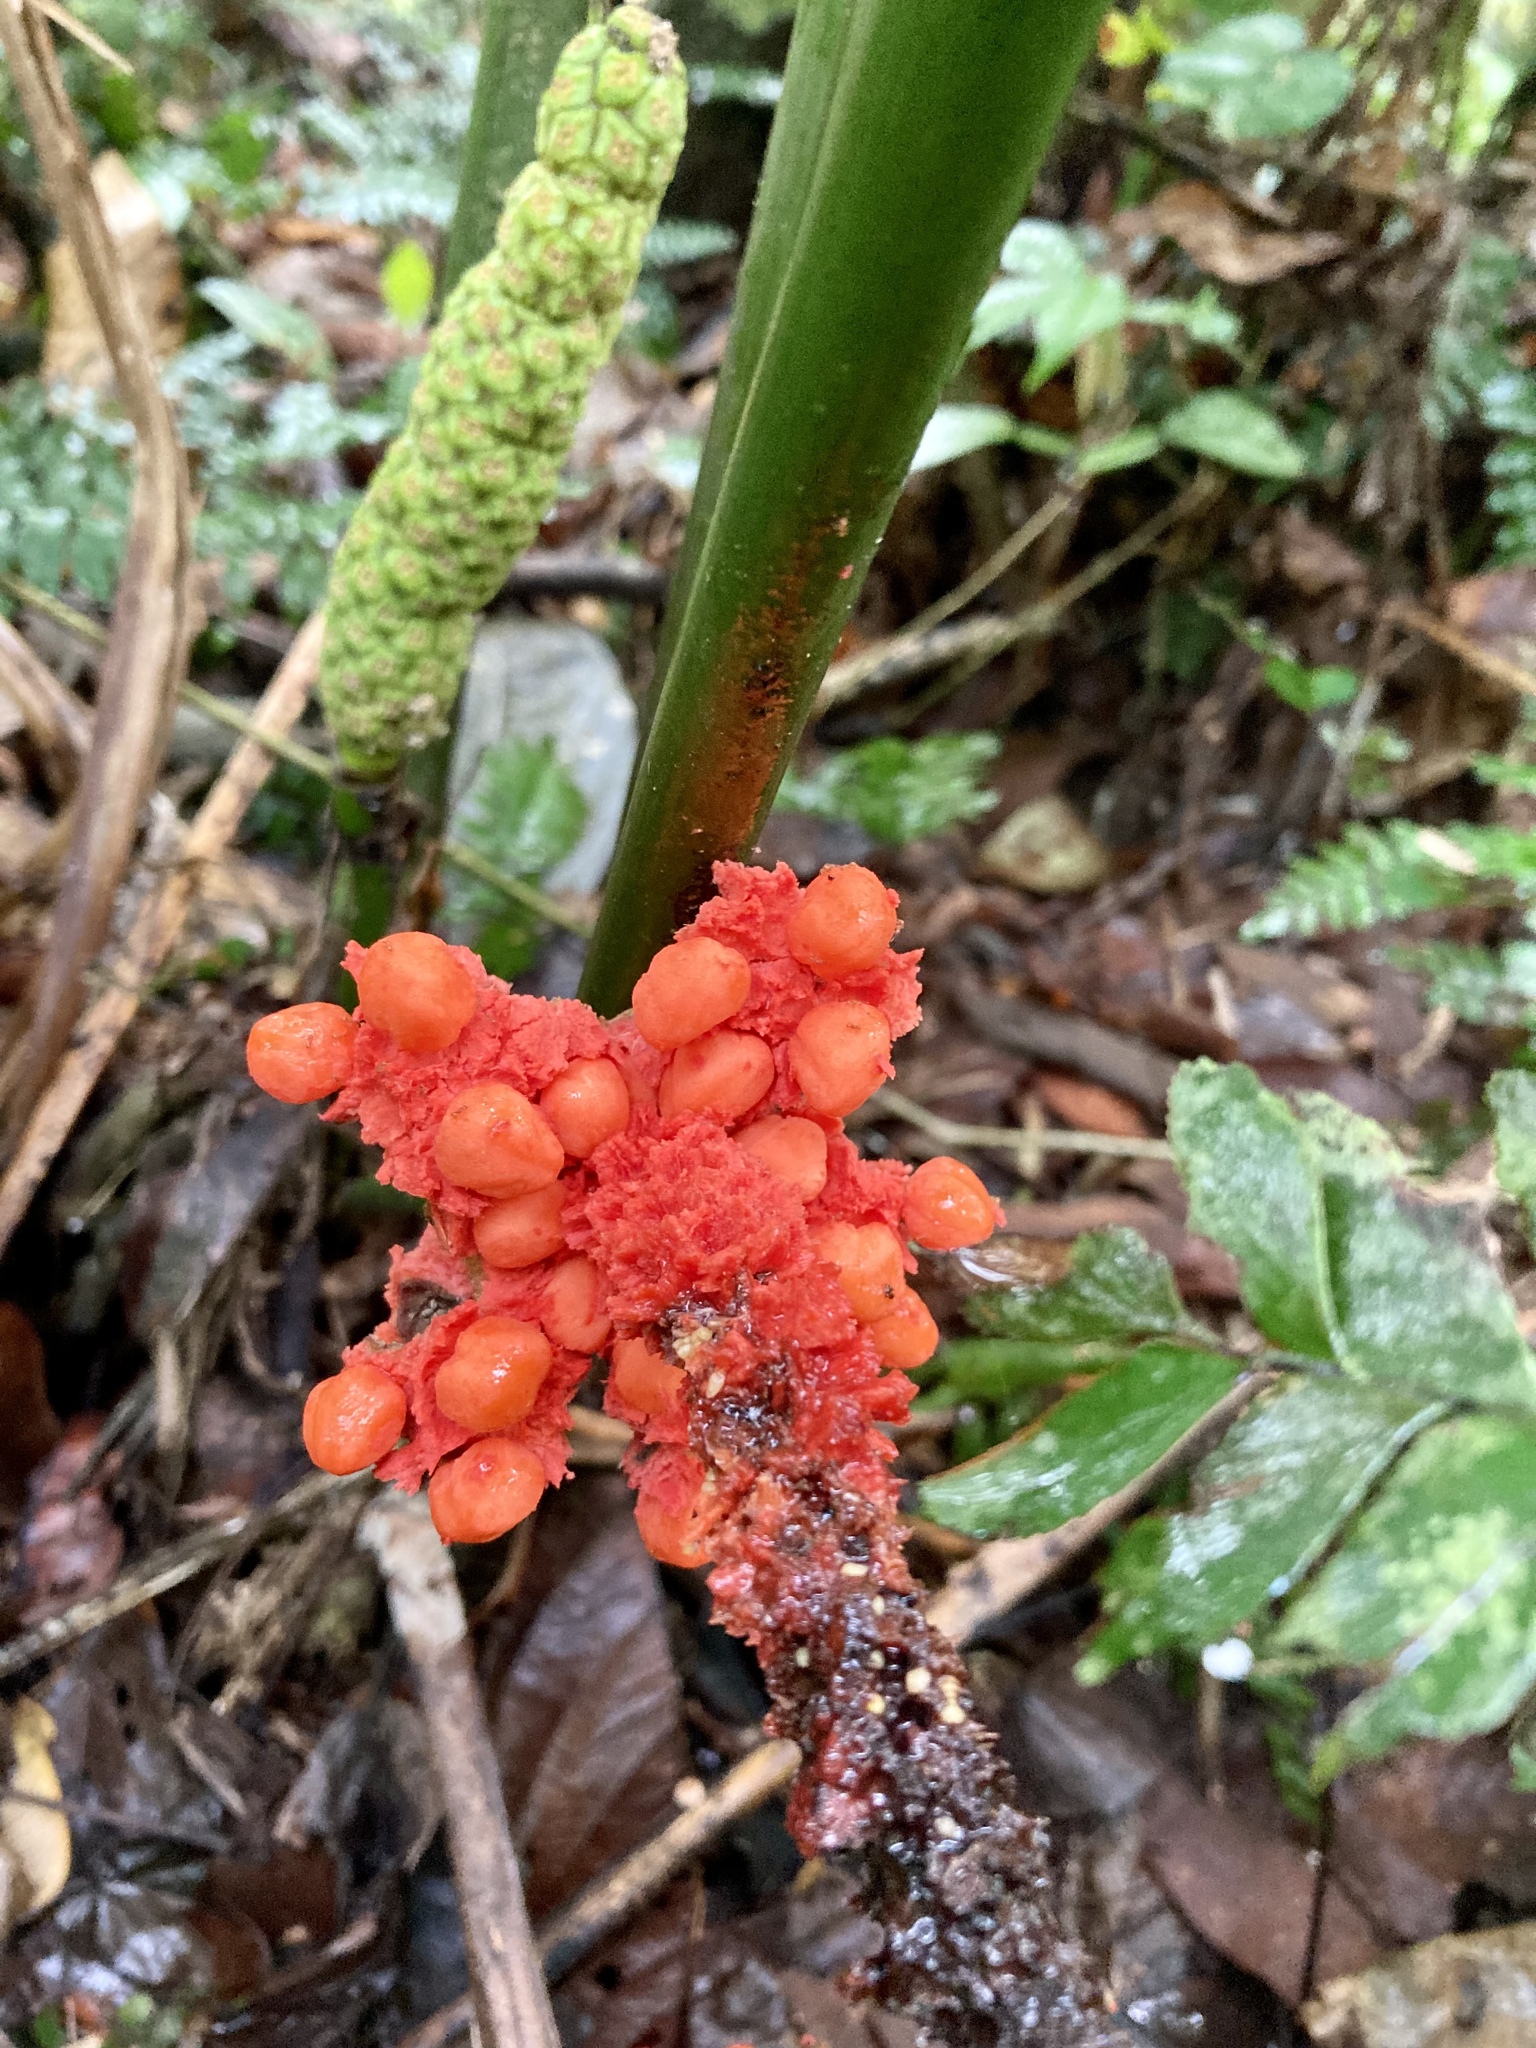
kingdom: Plantae
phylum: Tracheophyta
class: Liliopsida
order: Pandanales
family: Cyclanthaceae
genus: Carludovica
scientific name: Carludovica palmata
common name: Panama hat plant
